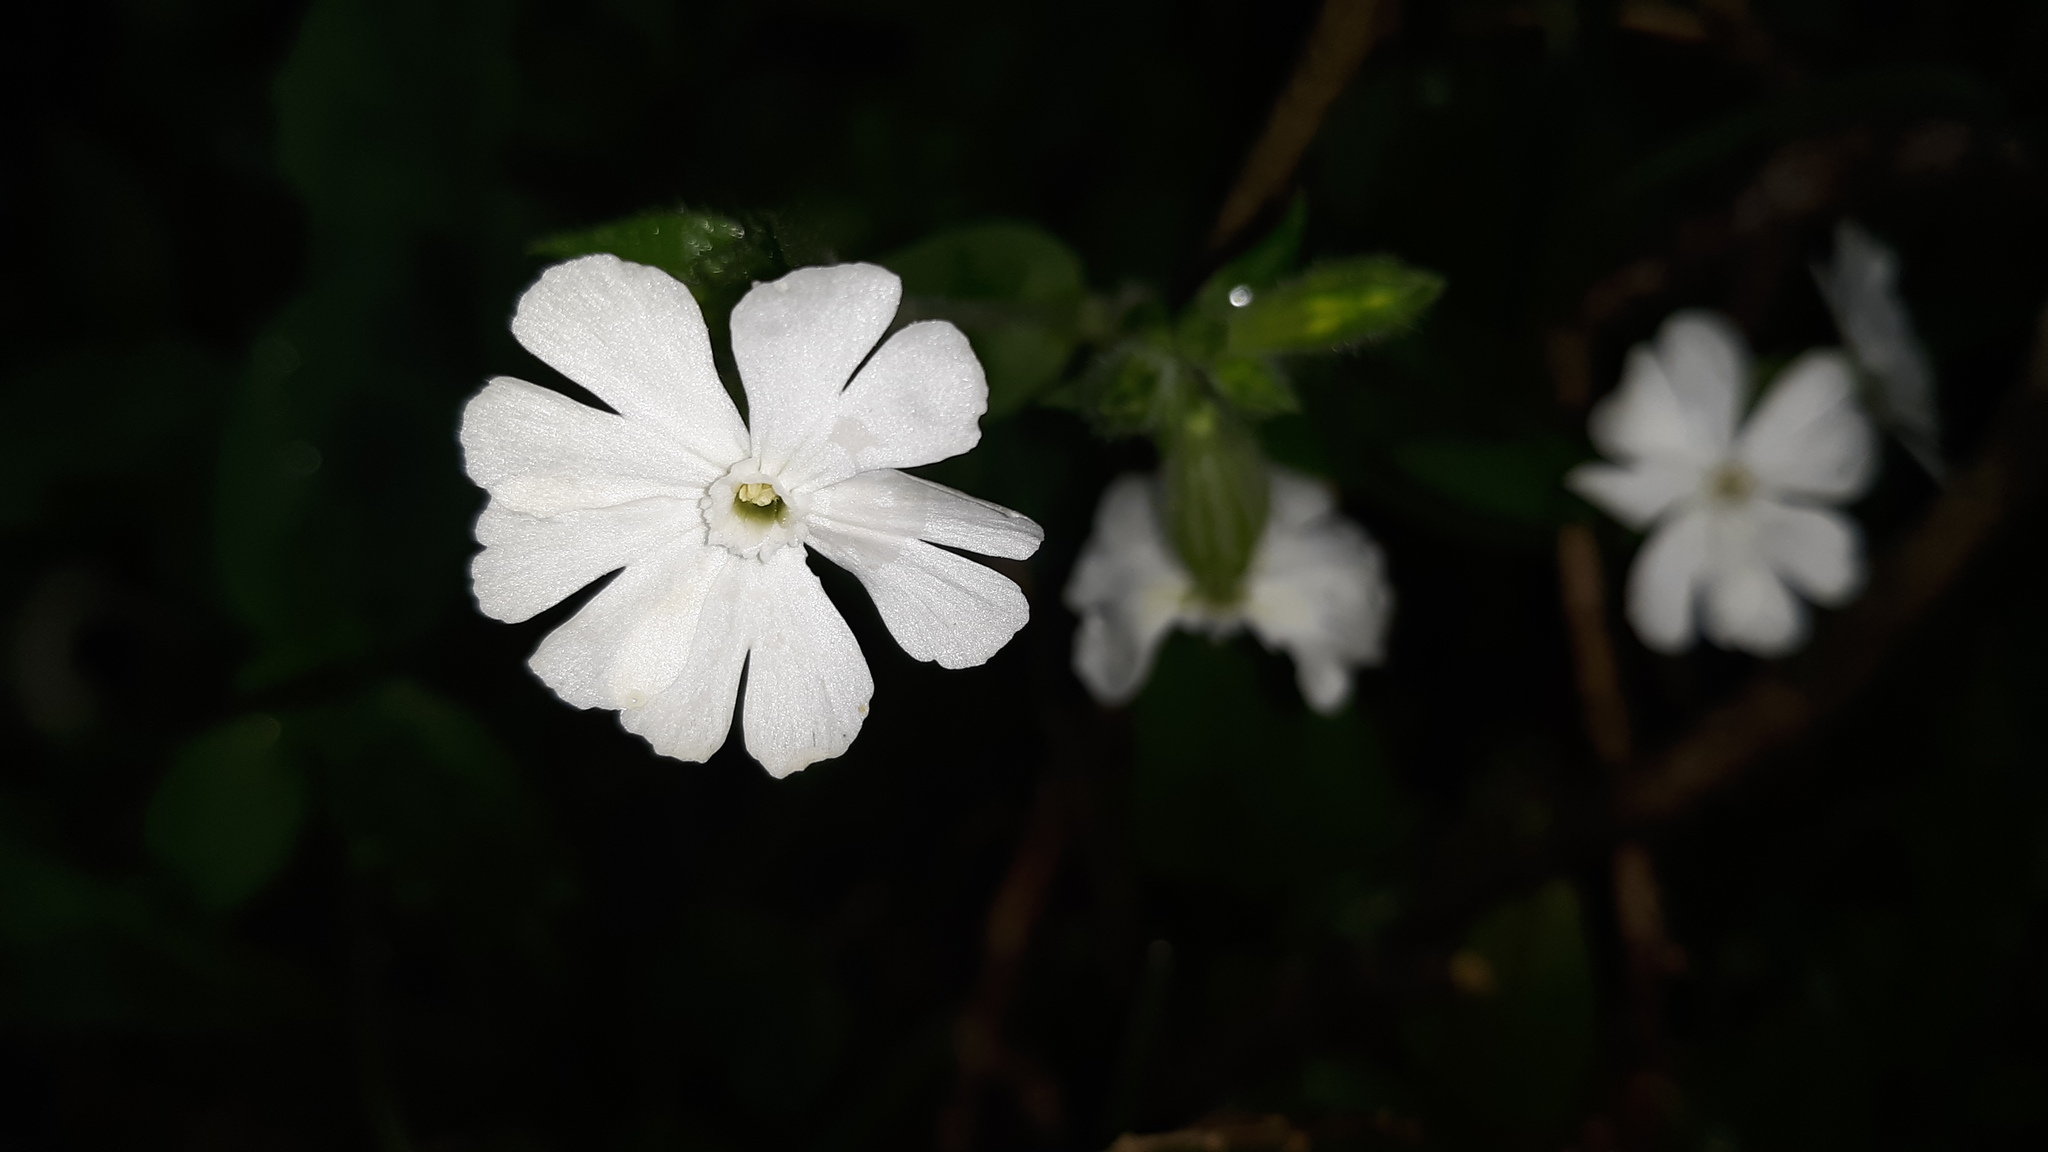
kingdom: Plantae
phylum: Tracheophyta
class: Magnoliopsida
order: Caryophyllales
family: Caryophyllaceae
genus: Silene
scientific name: Silene latifolia
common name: White campion
